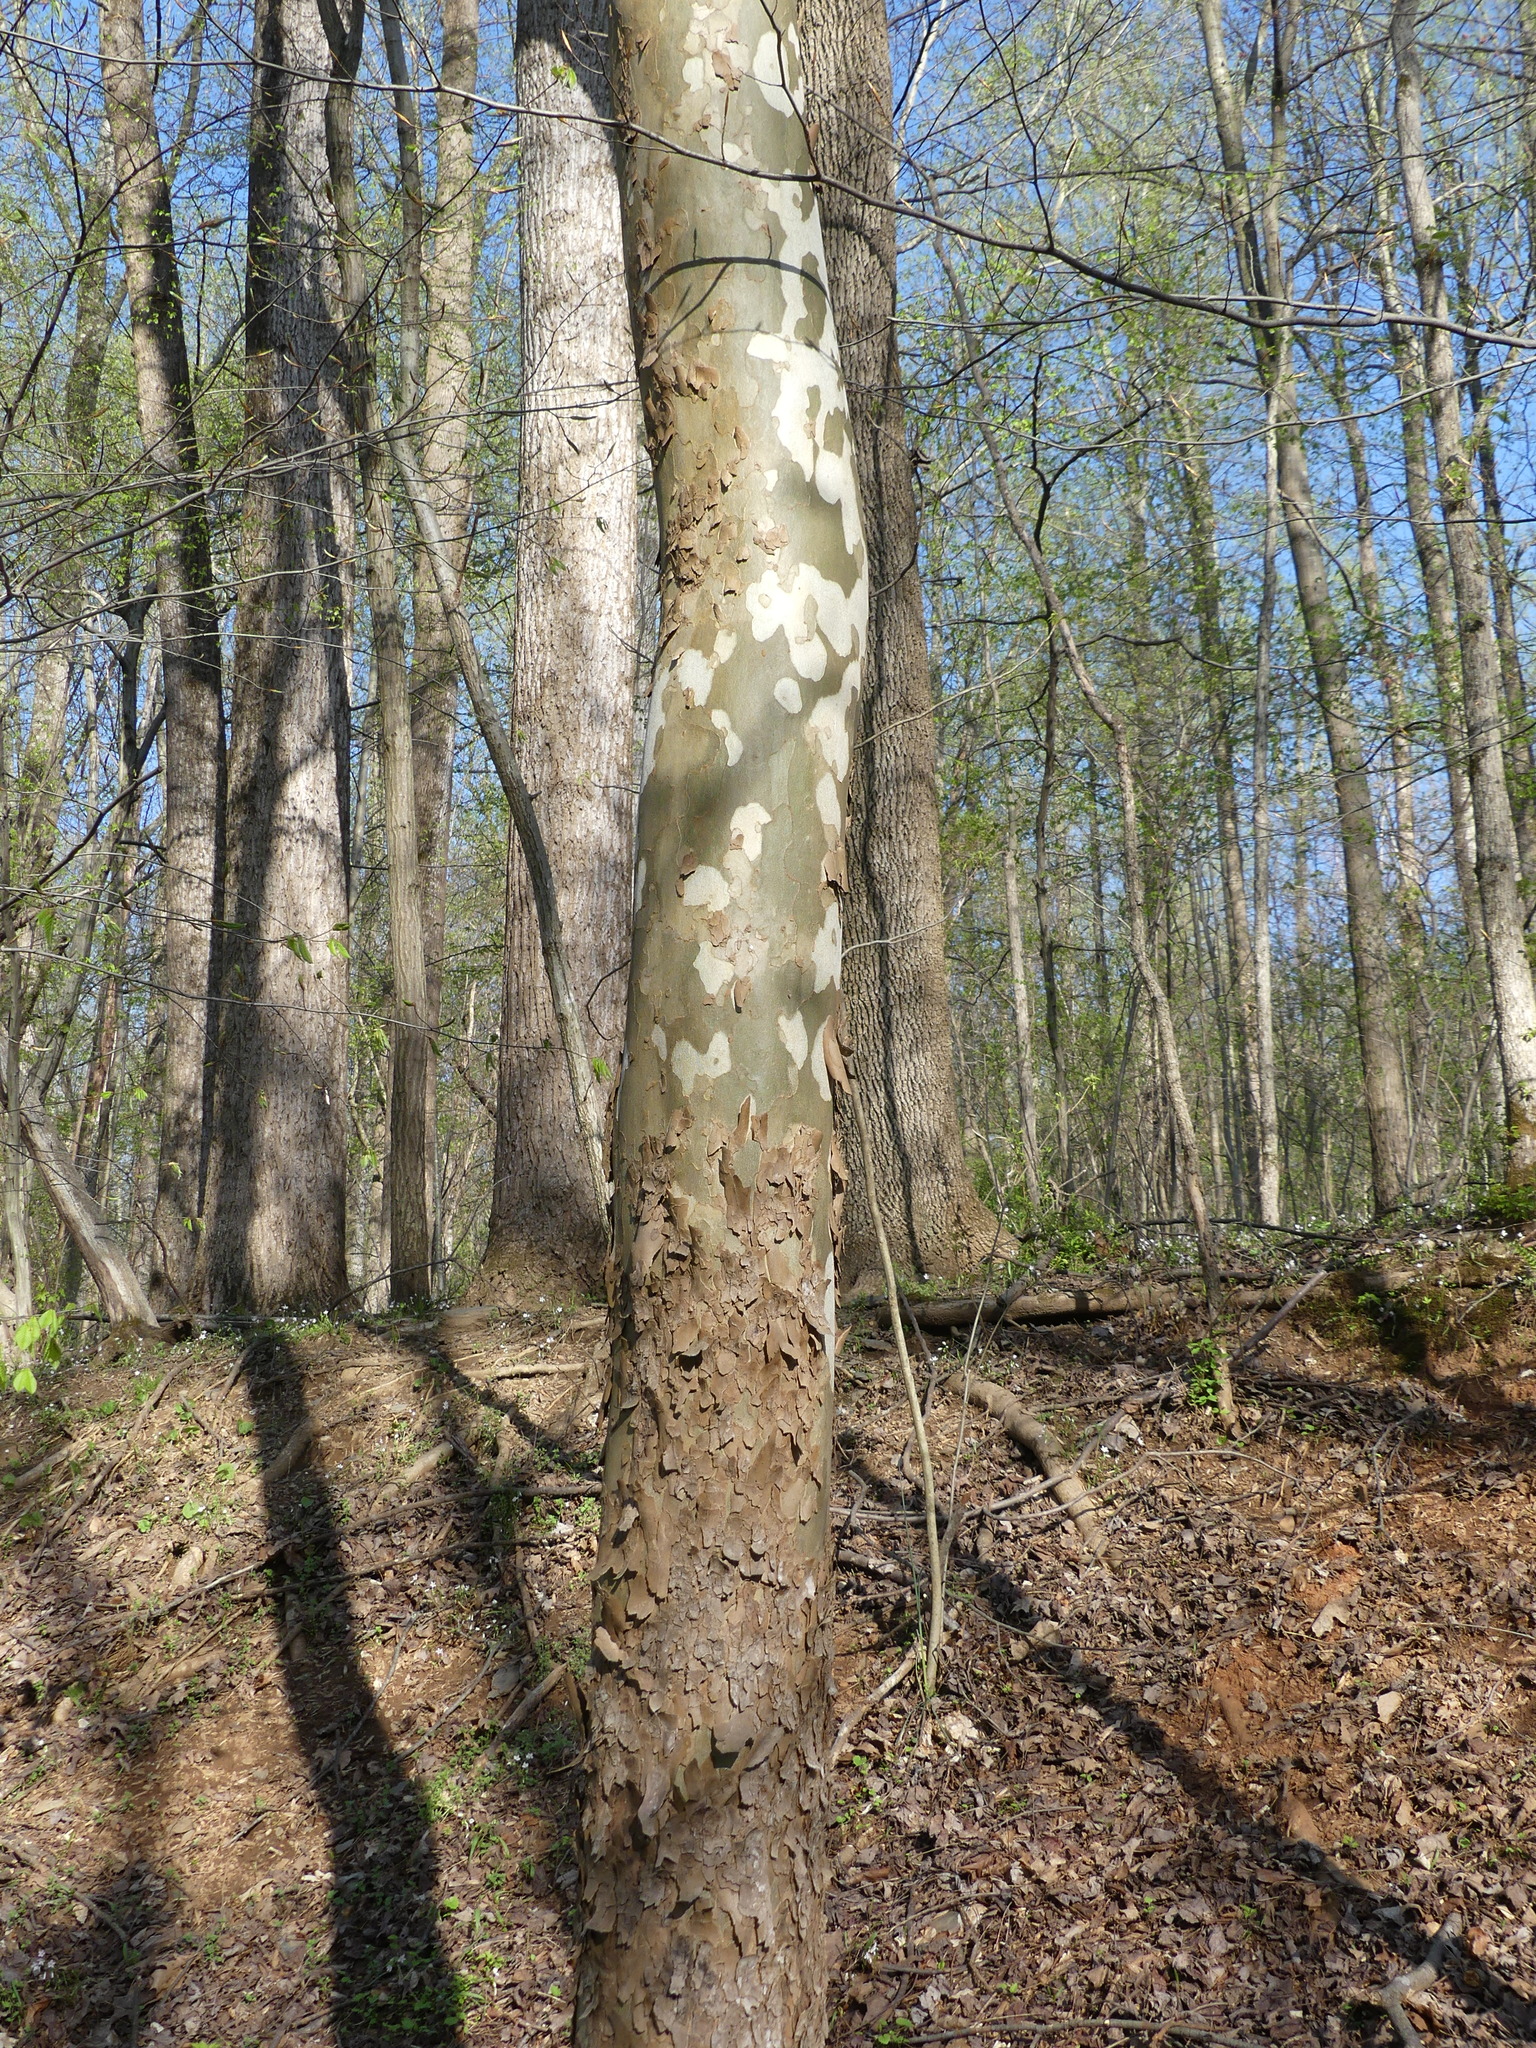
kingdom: Plantae
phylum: Tracheophyta
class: Magnoliopsida
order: Proteales
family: Platanaceae
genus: Platanus
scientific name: Platanus occidentalis
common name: American sycamore
